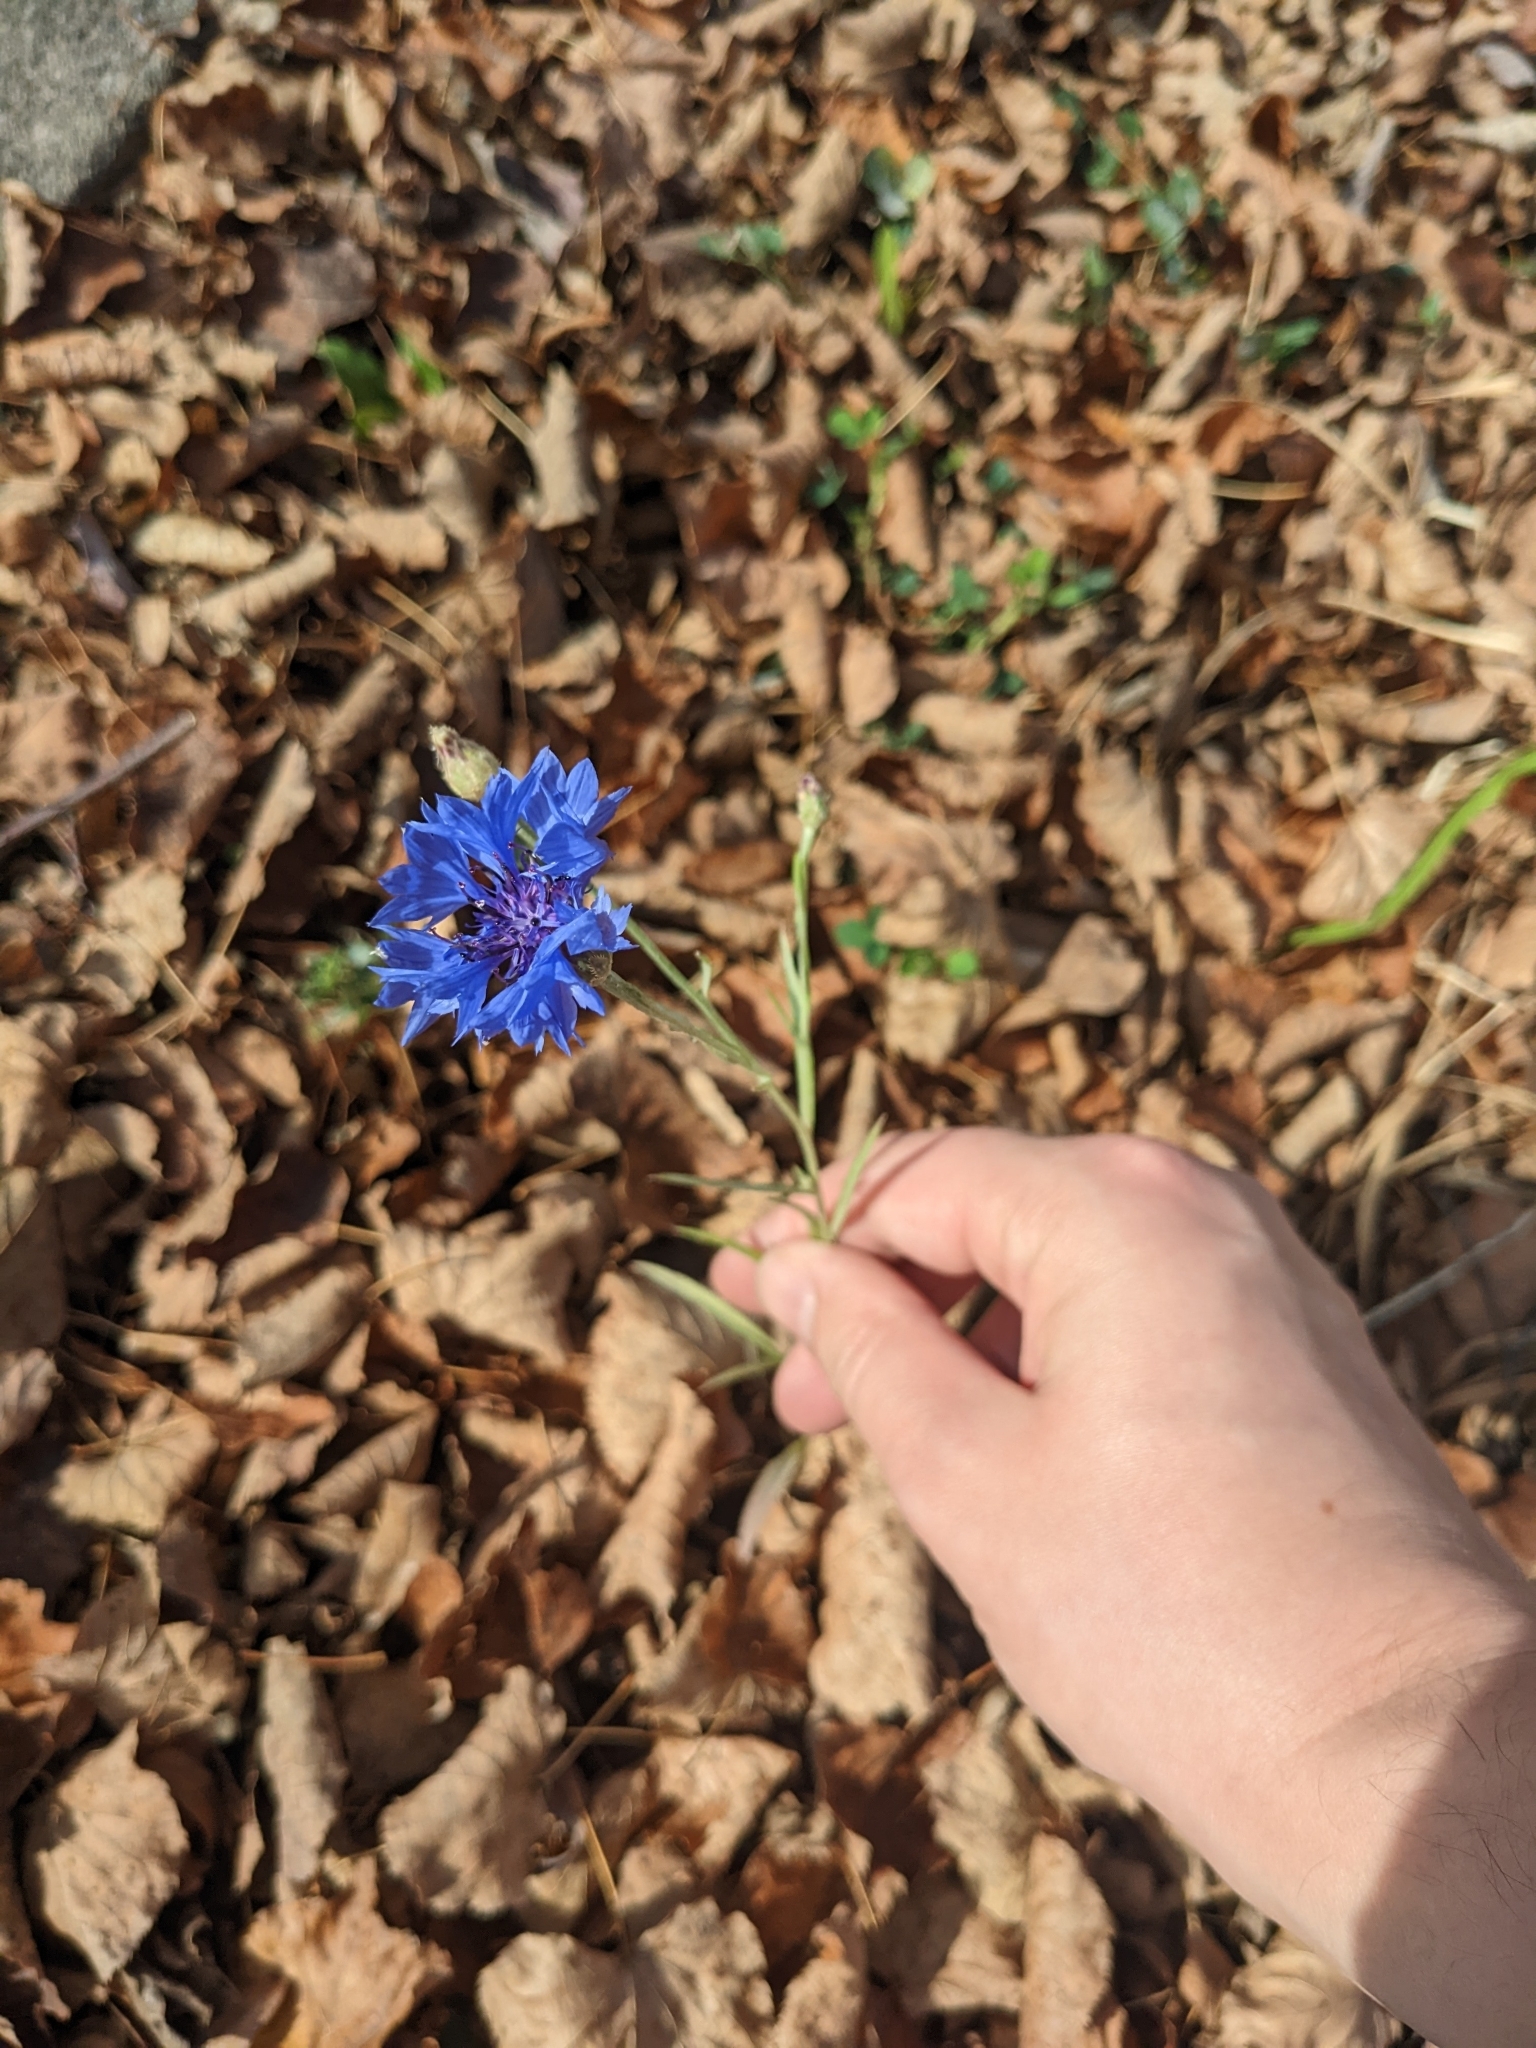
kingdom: Plantae
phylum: Tracheophyta
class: Magnoliopsida
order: Asterales
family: Asteraceae
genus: Centaurea
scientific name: Centaurea cyanus
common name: Cornflower
